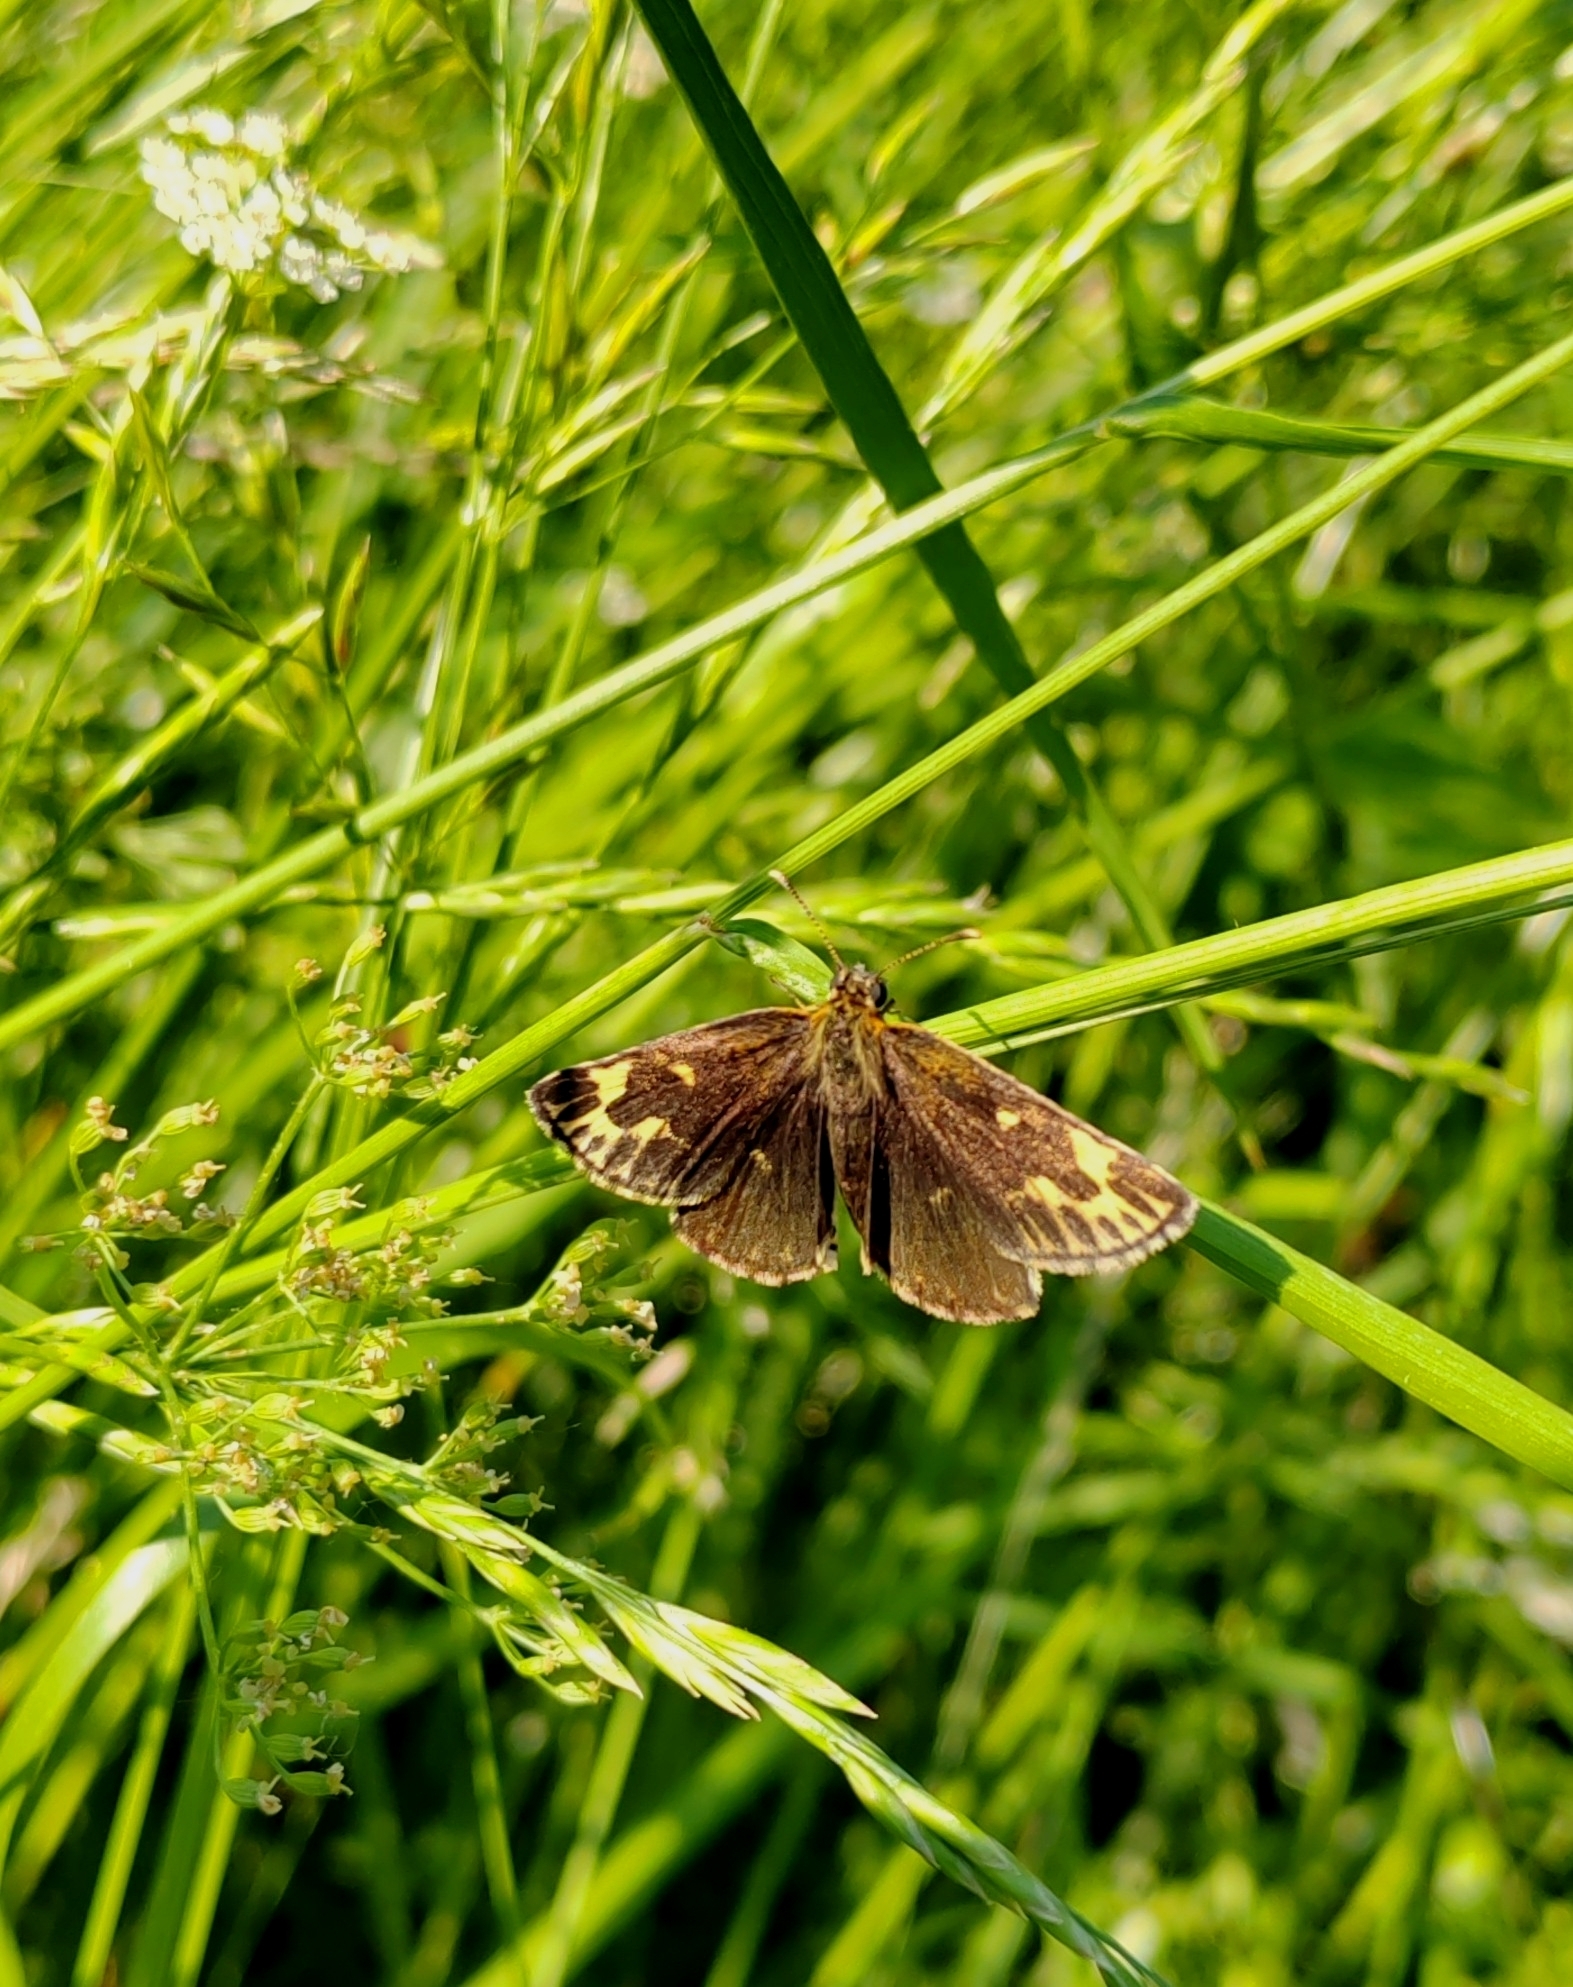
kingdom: Animalia
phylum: Arthropoda
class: Insecta
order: Lepidoptera
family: Hesperiidae
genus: Heteropterus
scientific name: Heteropterus morpheus
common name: Large chequered skipper
